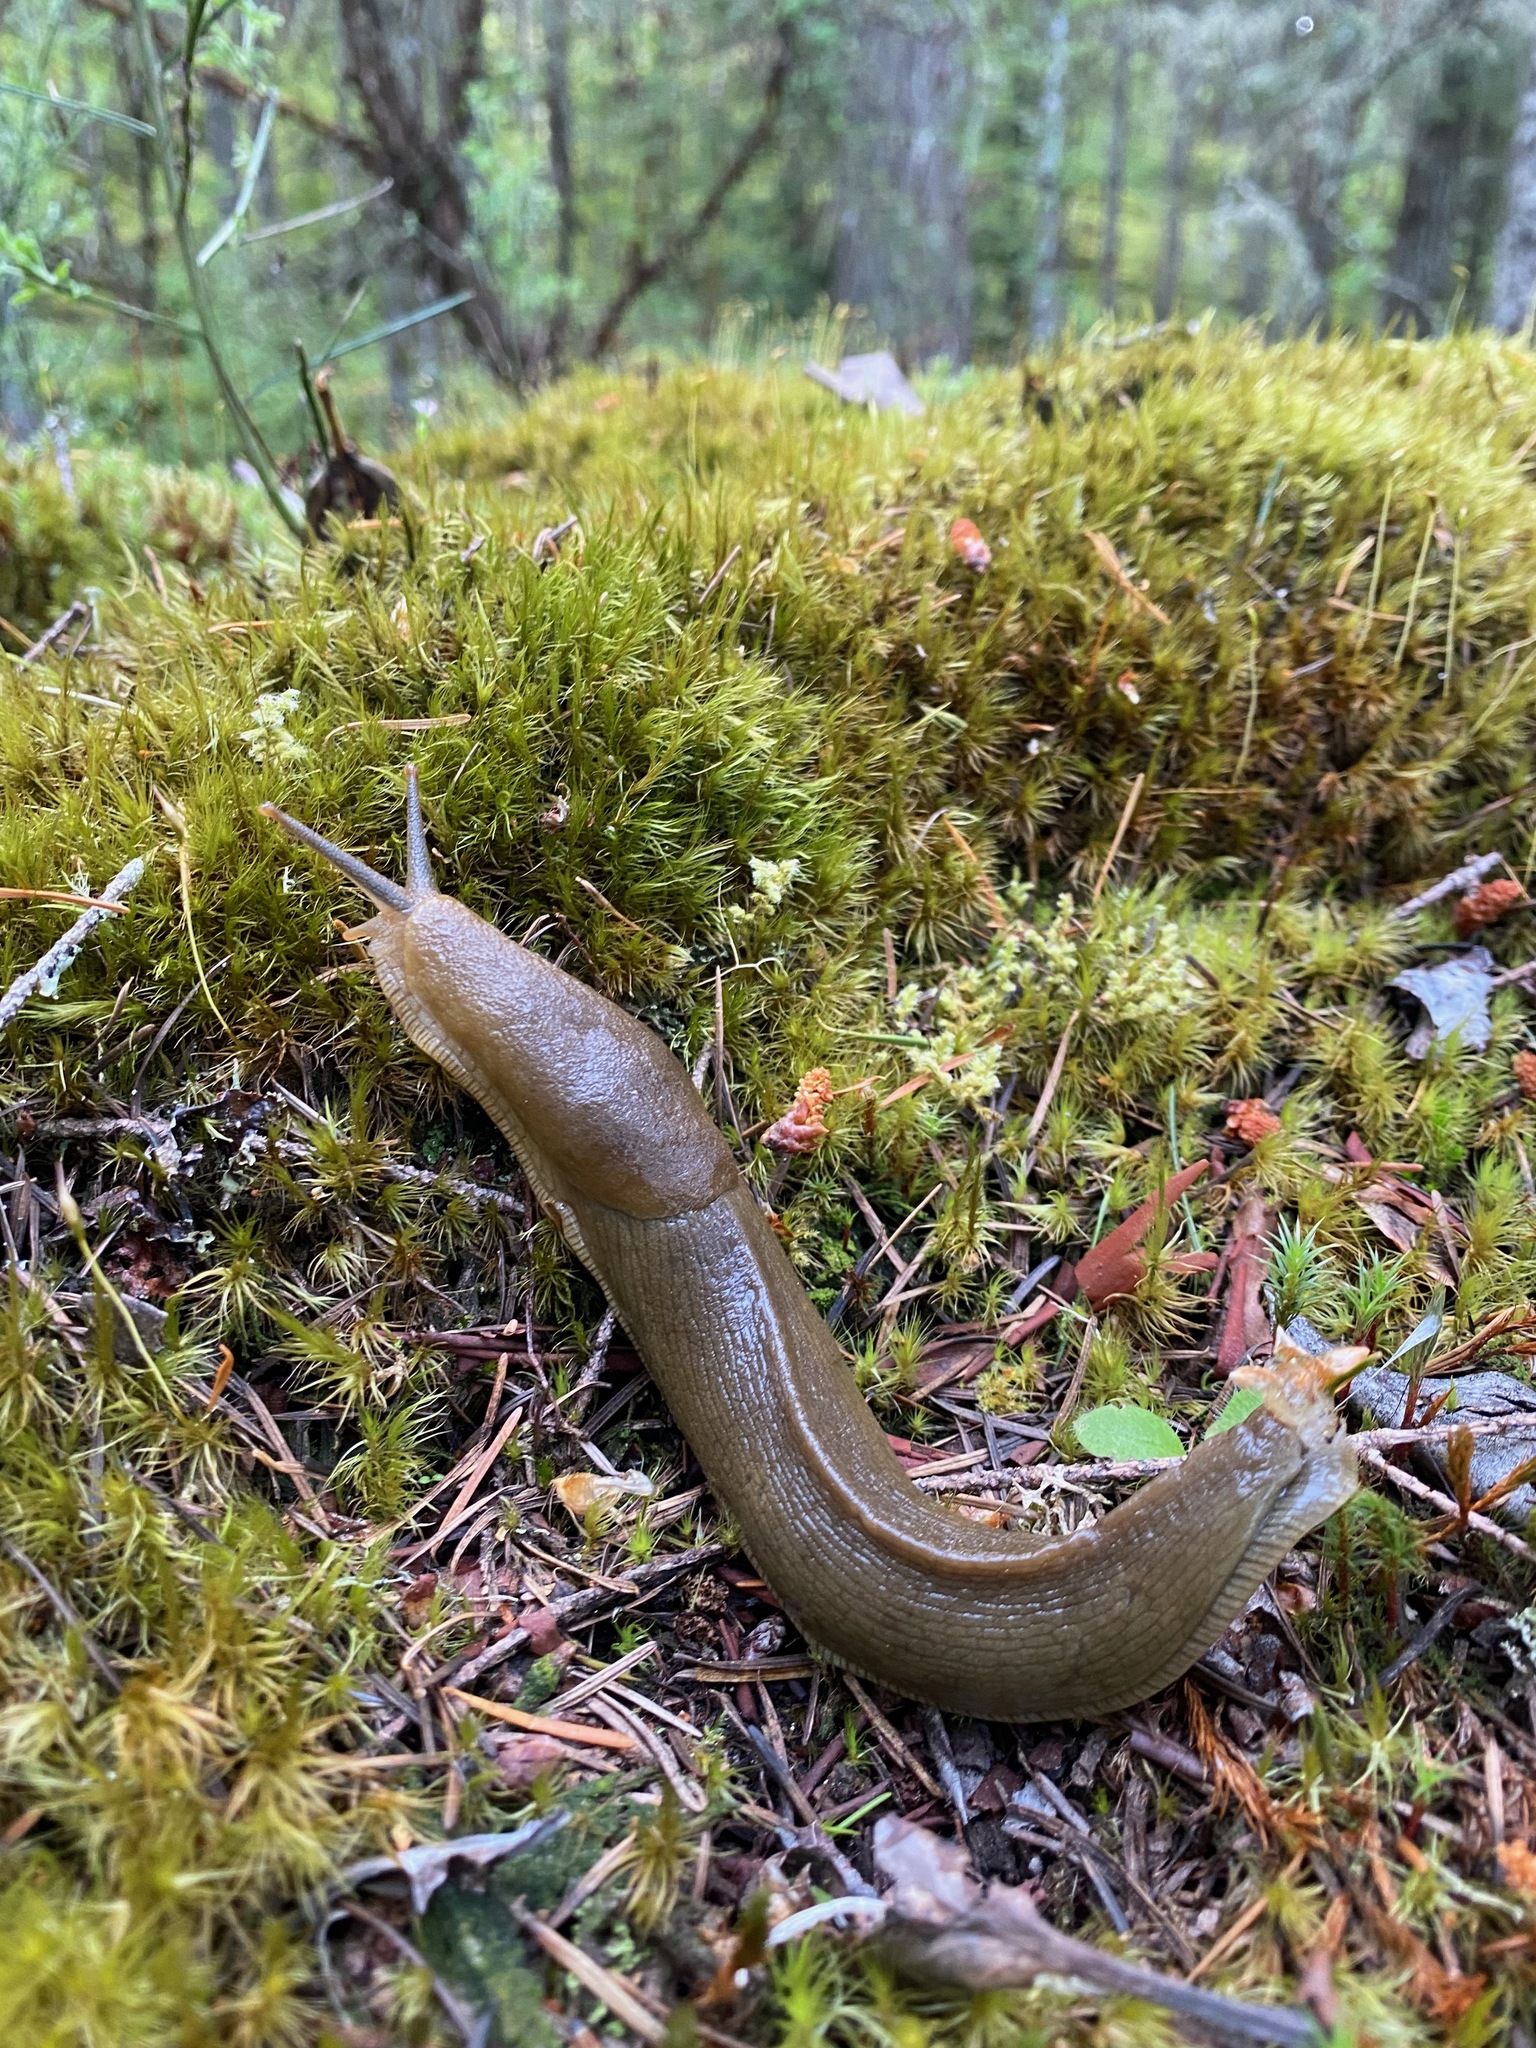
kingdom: Animalia
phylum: Mollusca
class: Gastropoda
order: Stylommatophora
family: Ariolimacidae
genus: Ariolimax
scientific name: Ariolimax columbianus
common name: Pacific banana slug
